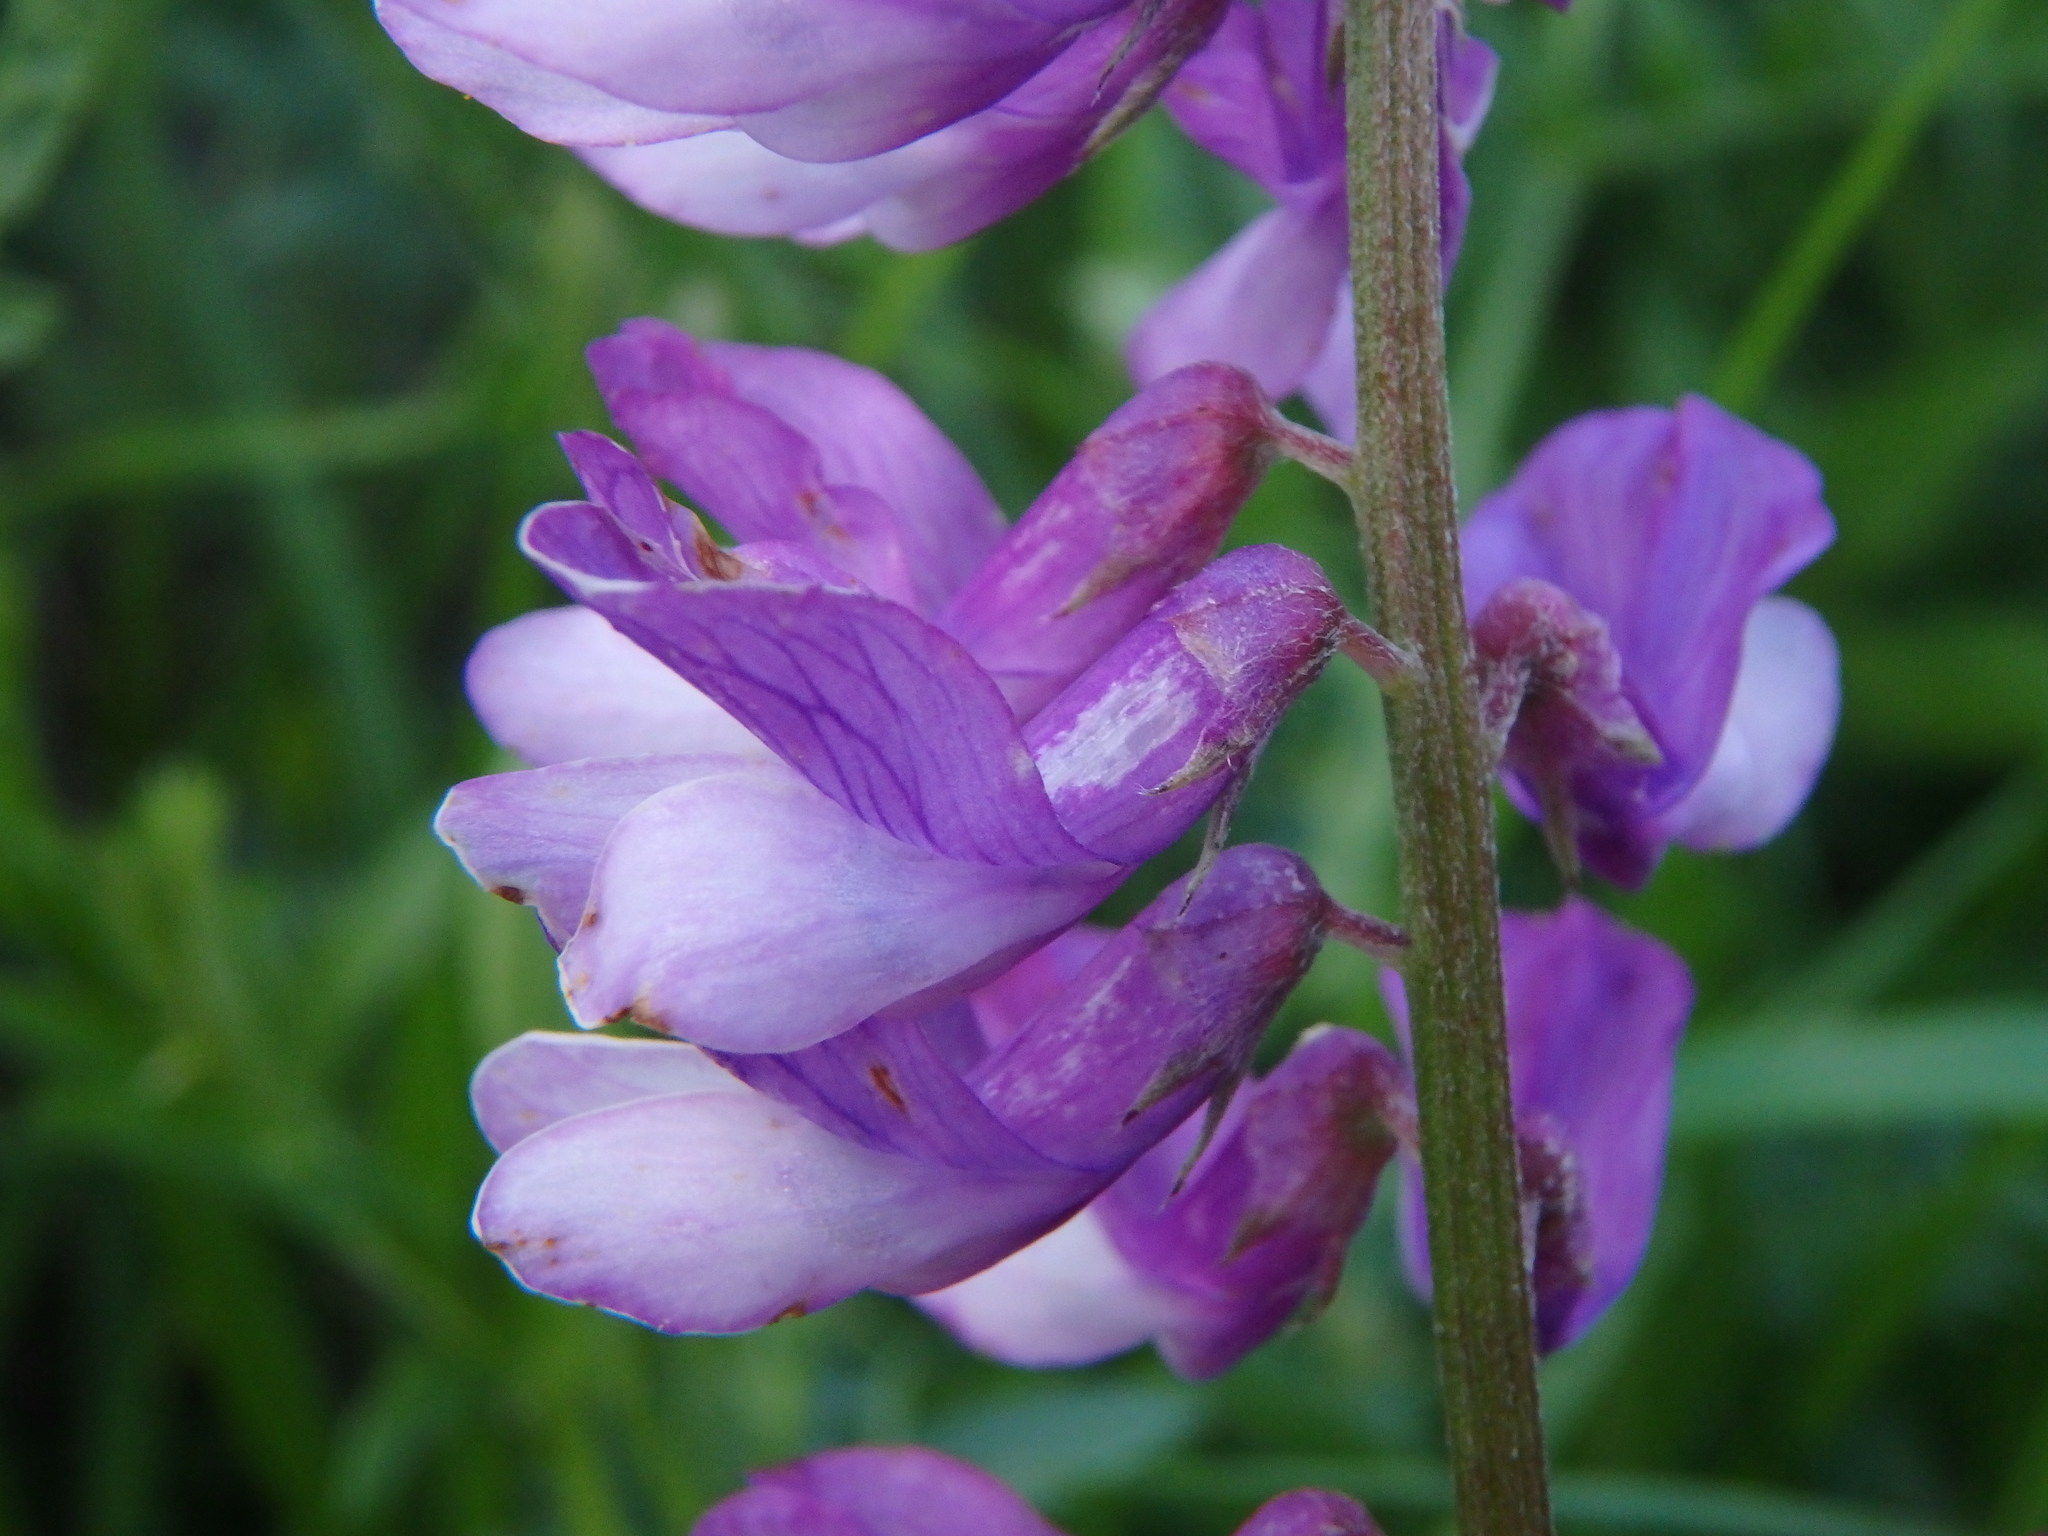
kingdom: Plantae
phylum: Tracheophyta
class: Magnoliopsida
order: Fabales
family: Fabaceae
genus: Vicia
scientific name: Vicia tenuifolia
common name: Fine-leaved vetch
